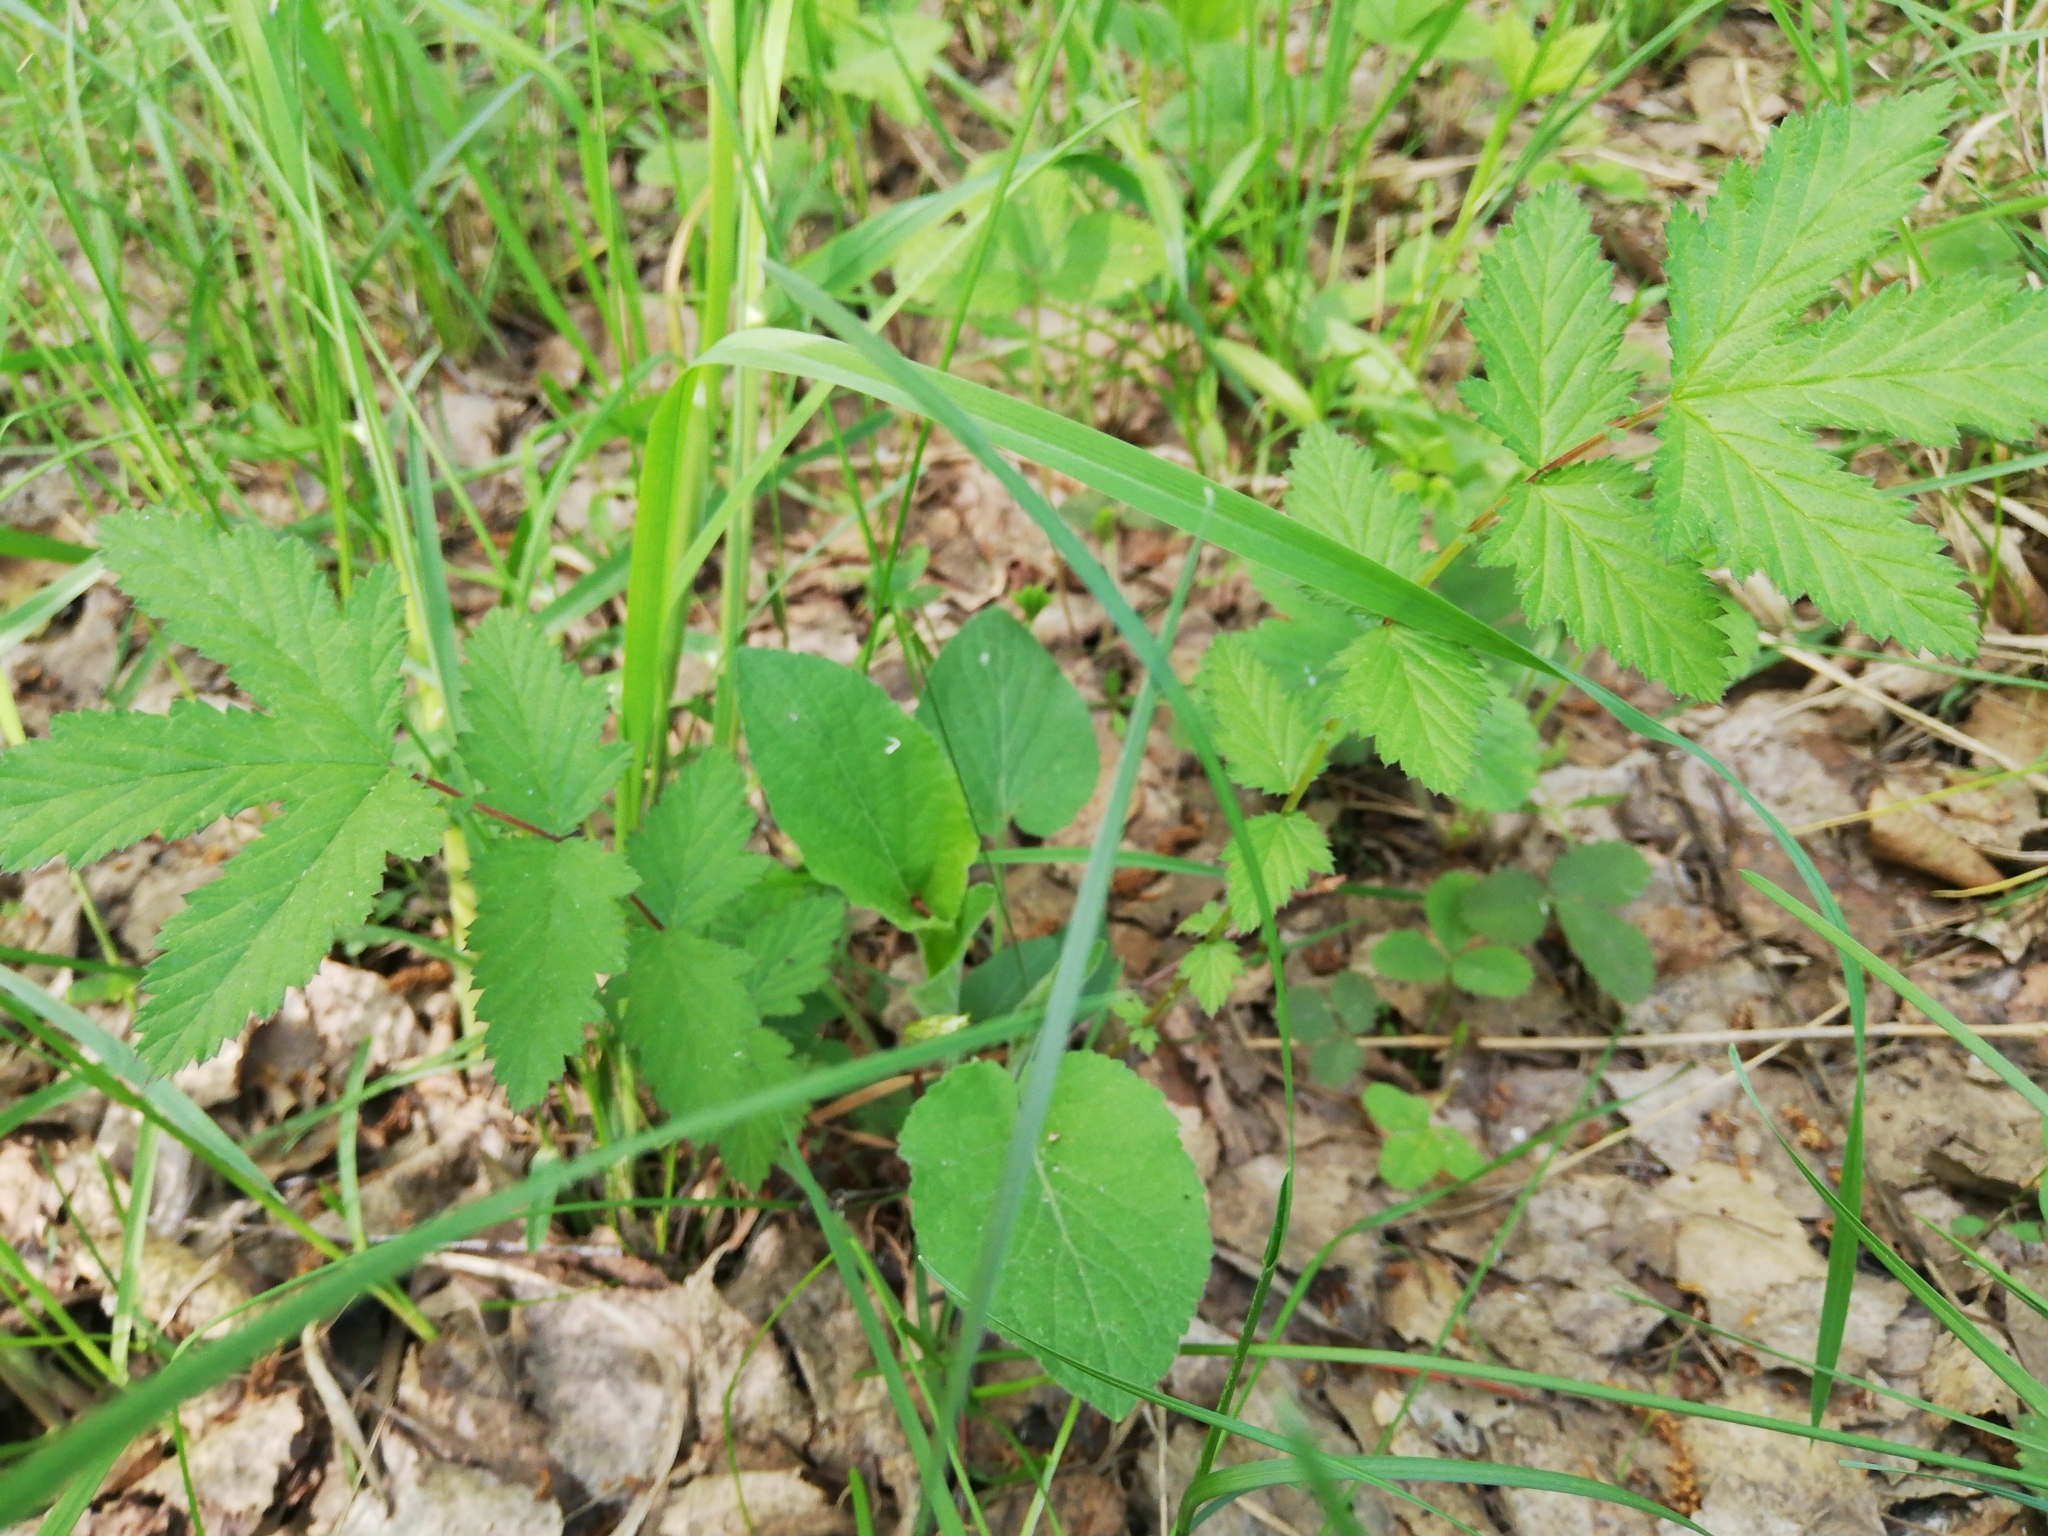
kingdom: Plantae
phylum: Tracheophyta
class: Magnoliopsida
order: Rosales
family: Rosaceae
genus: Filipendula
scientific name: Filipendula ulmaria
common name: Meadowsweet
